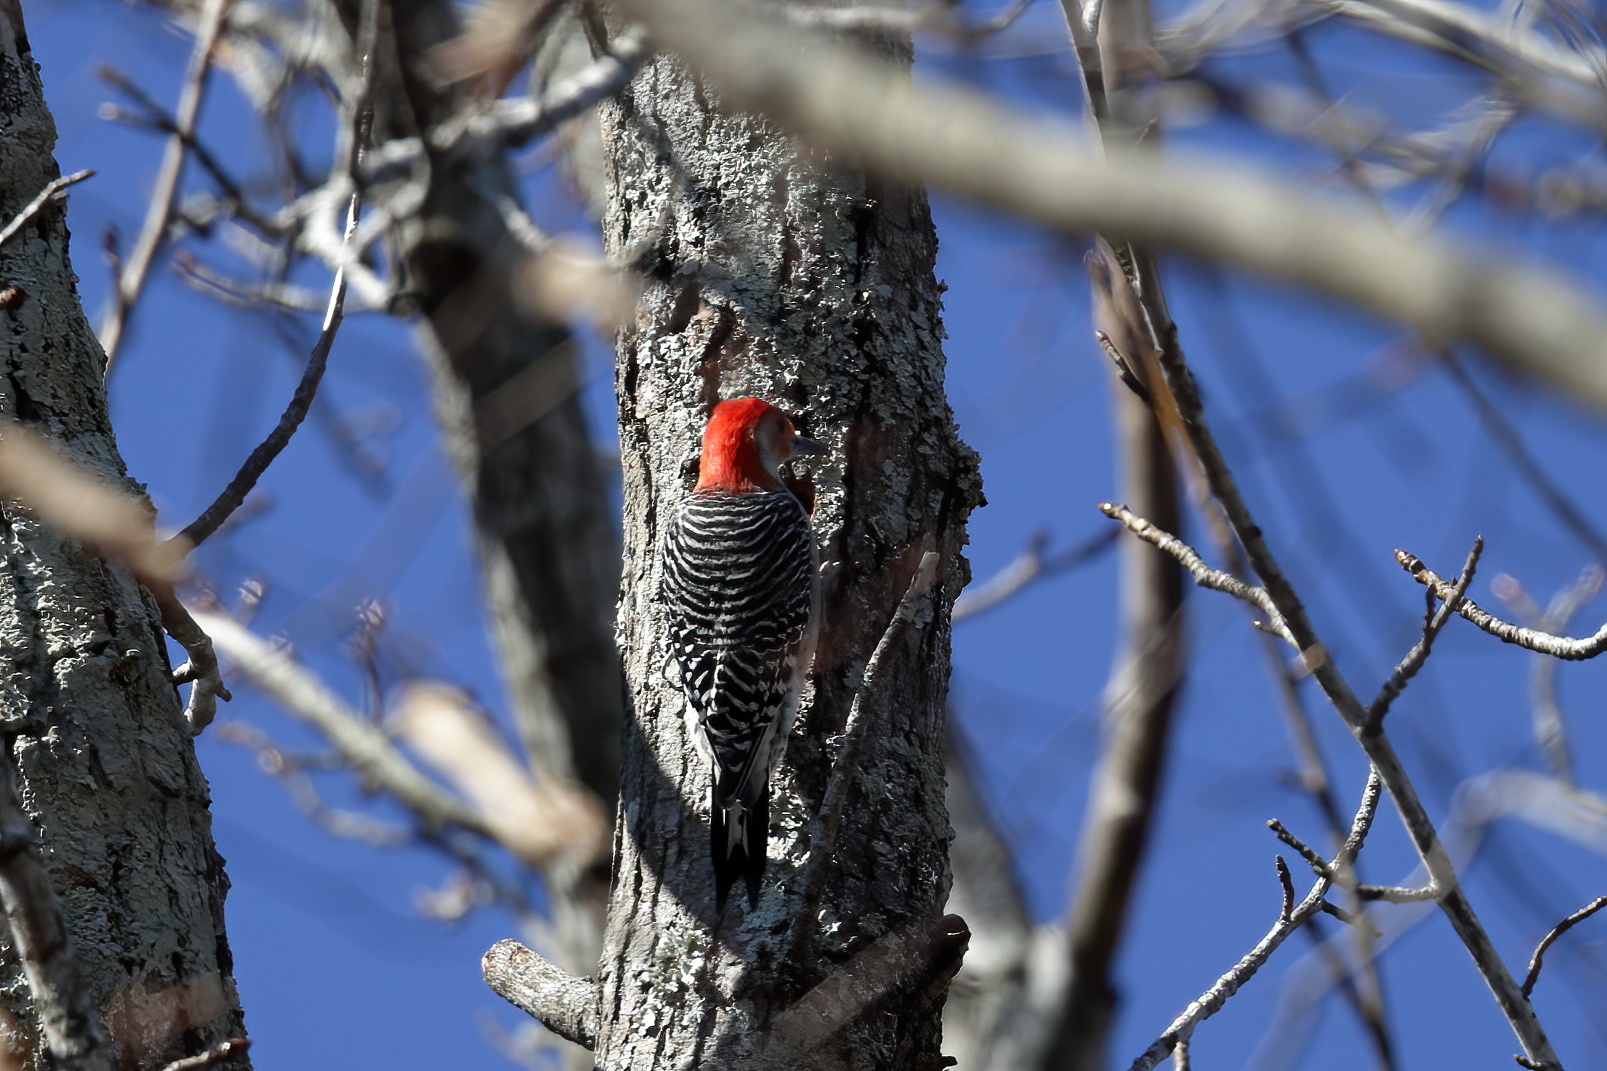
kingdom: Animalia
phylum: Chordata
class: Aves
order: Piciformes
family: Picidae
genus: Melanerpes
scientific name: Melanerpes carolinus
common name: Red-bellied woodpecker
